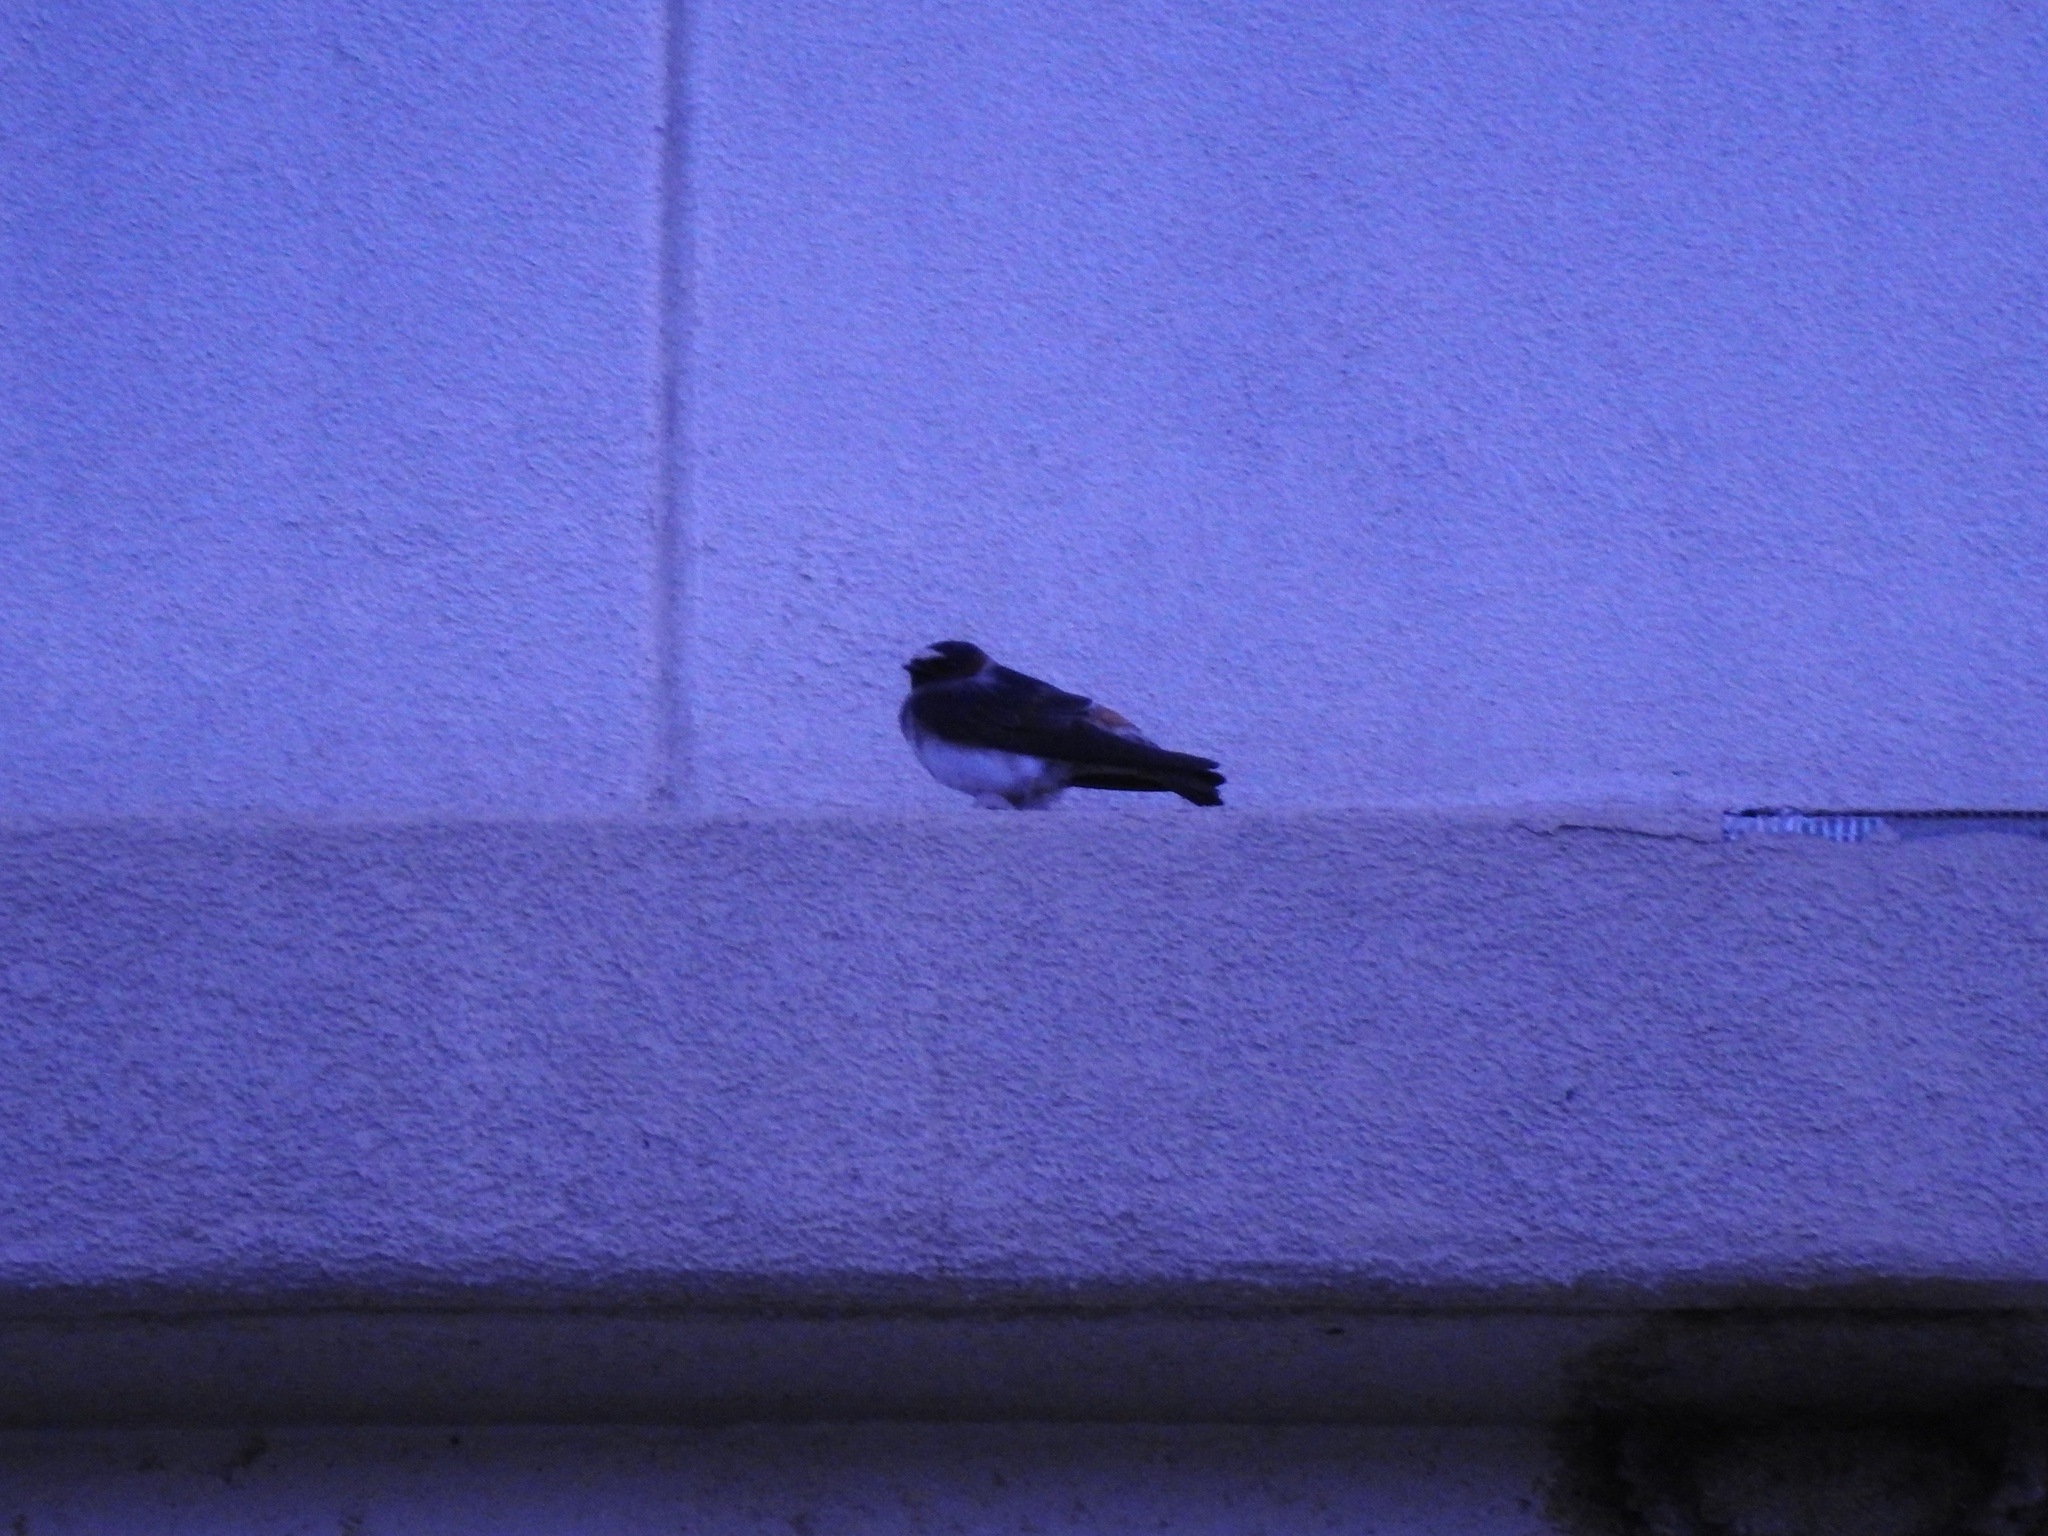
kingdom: Animalia
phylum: Chordata
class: Aves
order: Passeriformes
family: Hirundinidae
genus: Petrochelidon
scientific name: Petrochelidon pyrrhonota
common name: American cliff swallow
